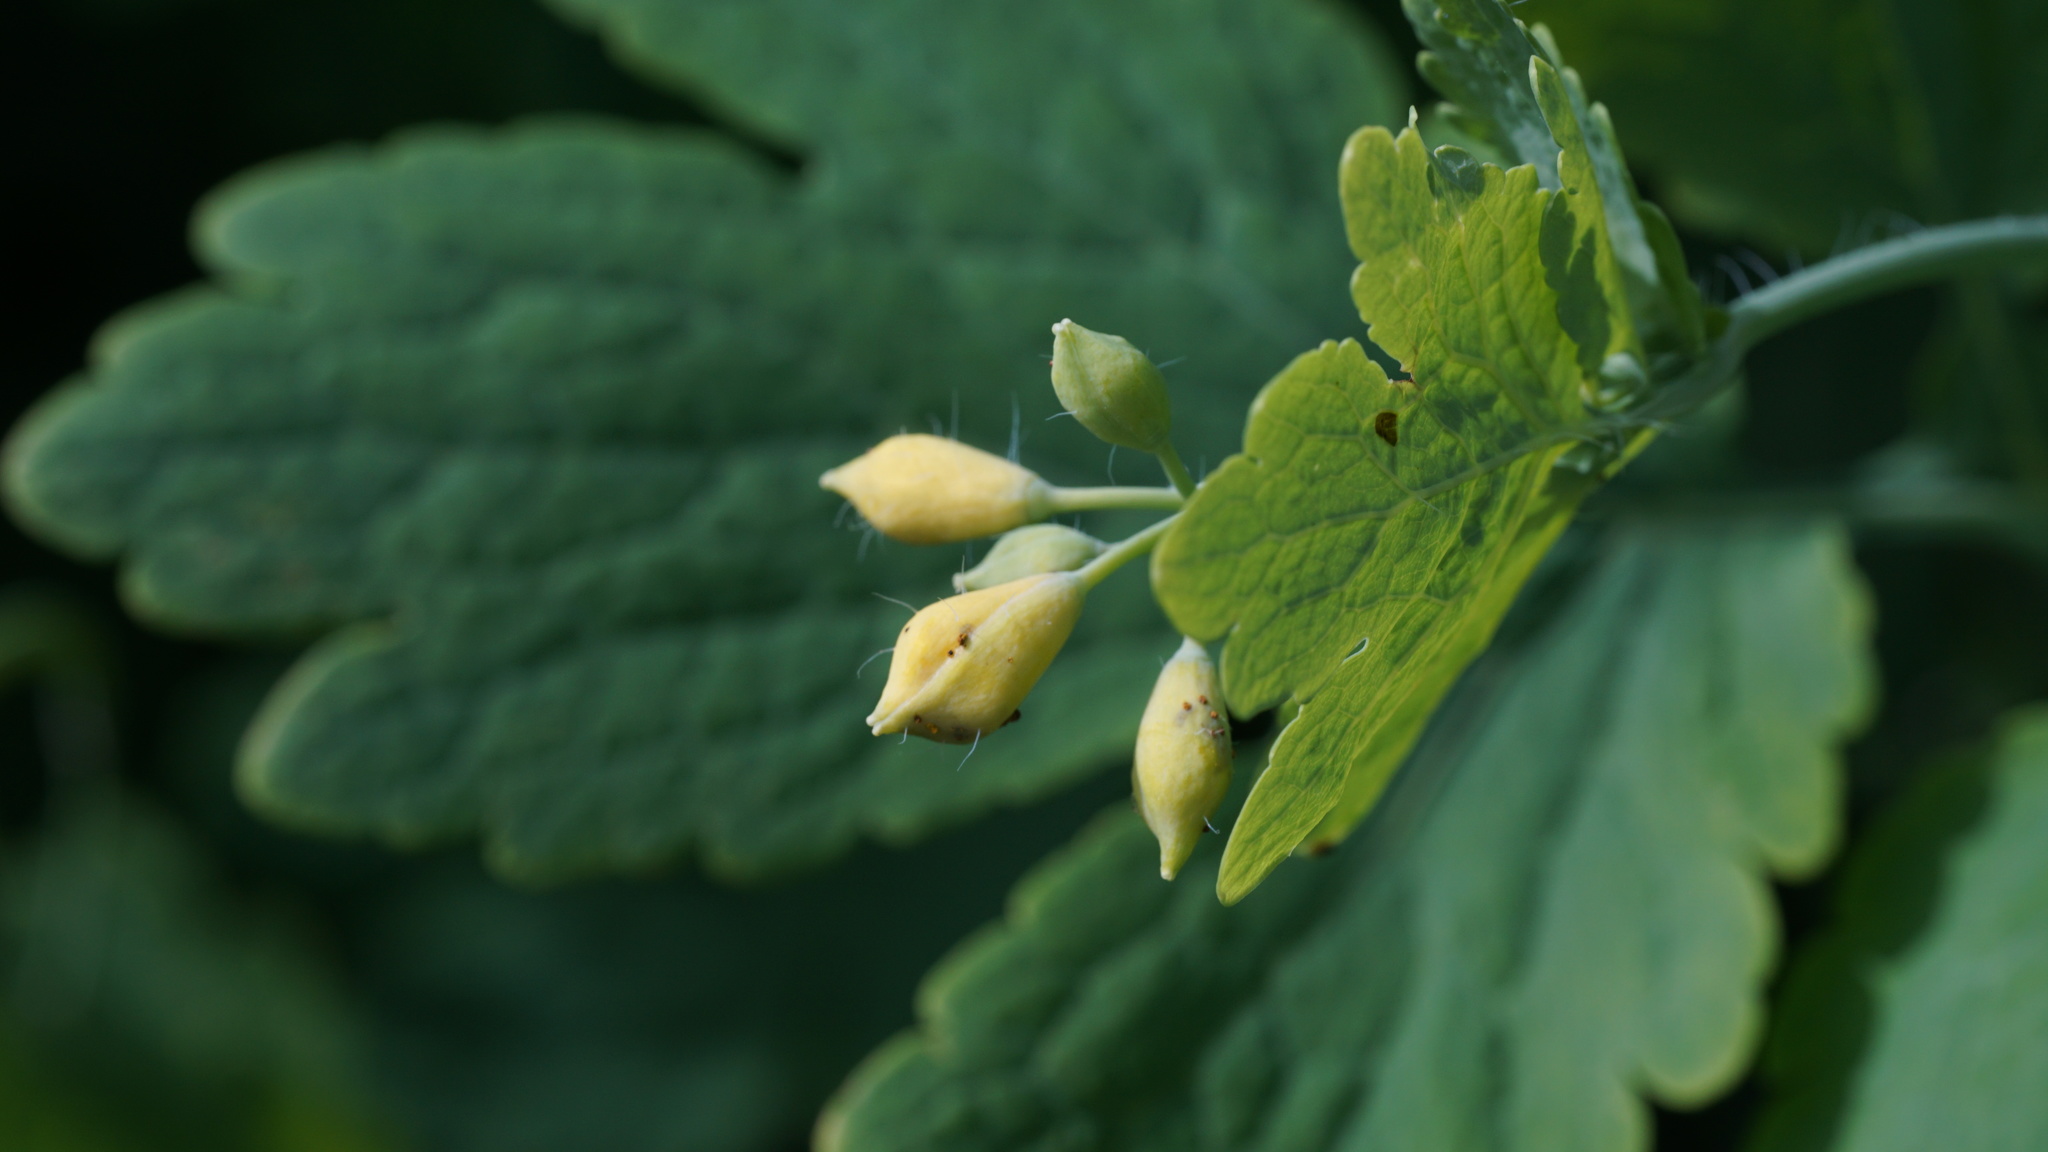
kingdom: Plantae
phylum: Tracheophyta
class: Magnoliopsida
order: Ranunculales
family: Papaveraceae
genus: Chelidonium
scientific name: Chelidonium majus
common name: Greater celandine
